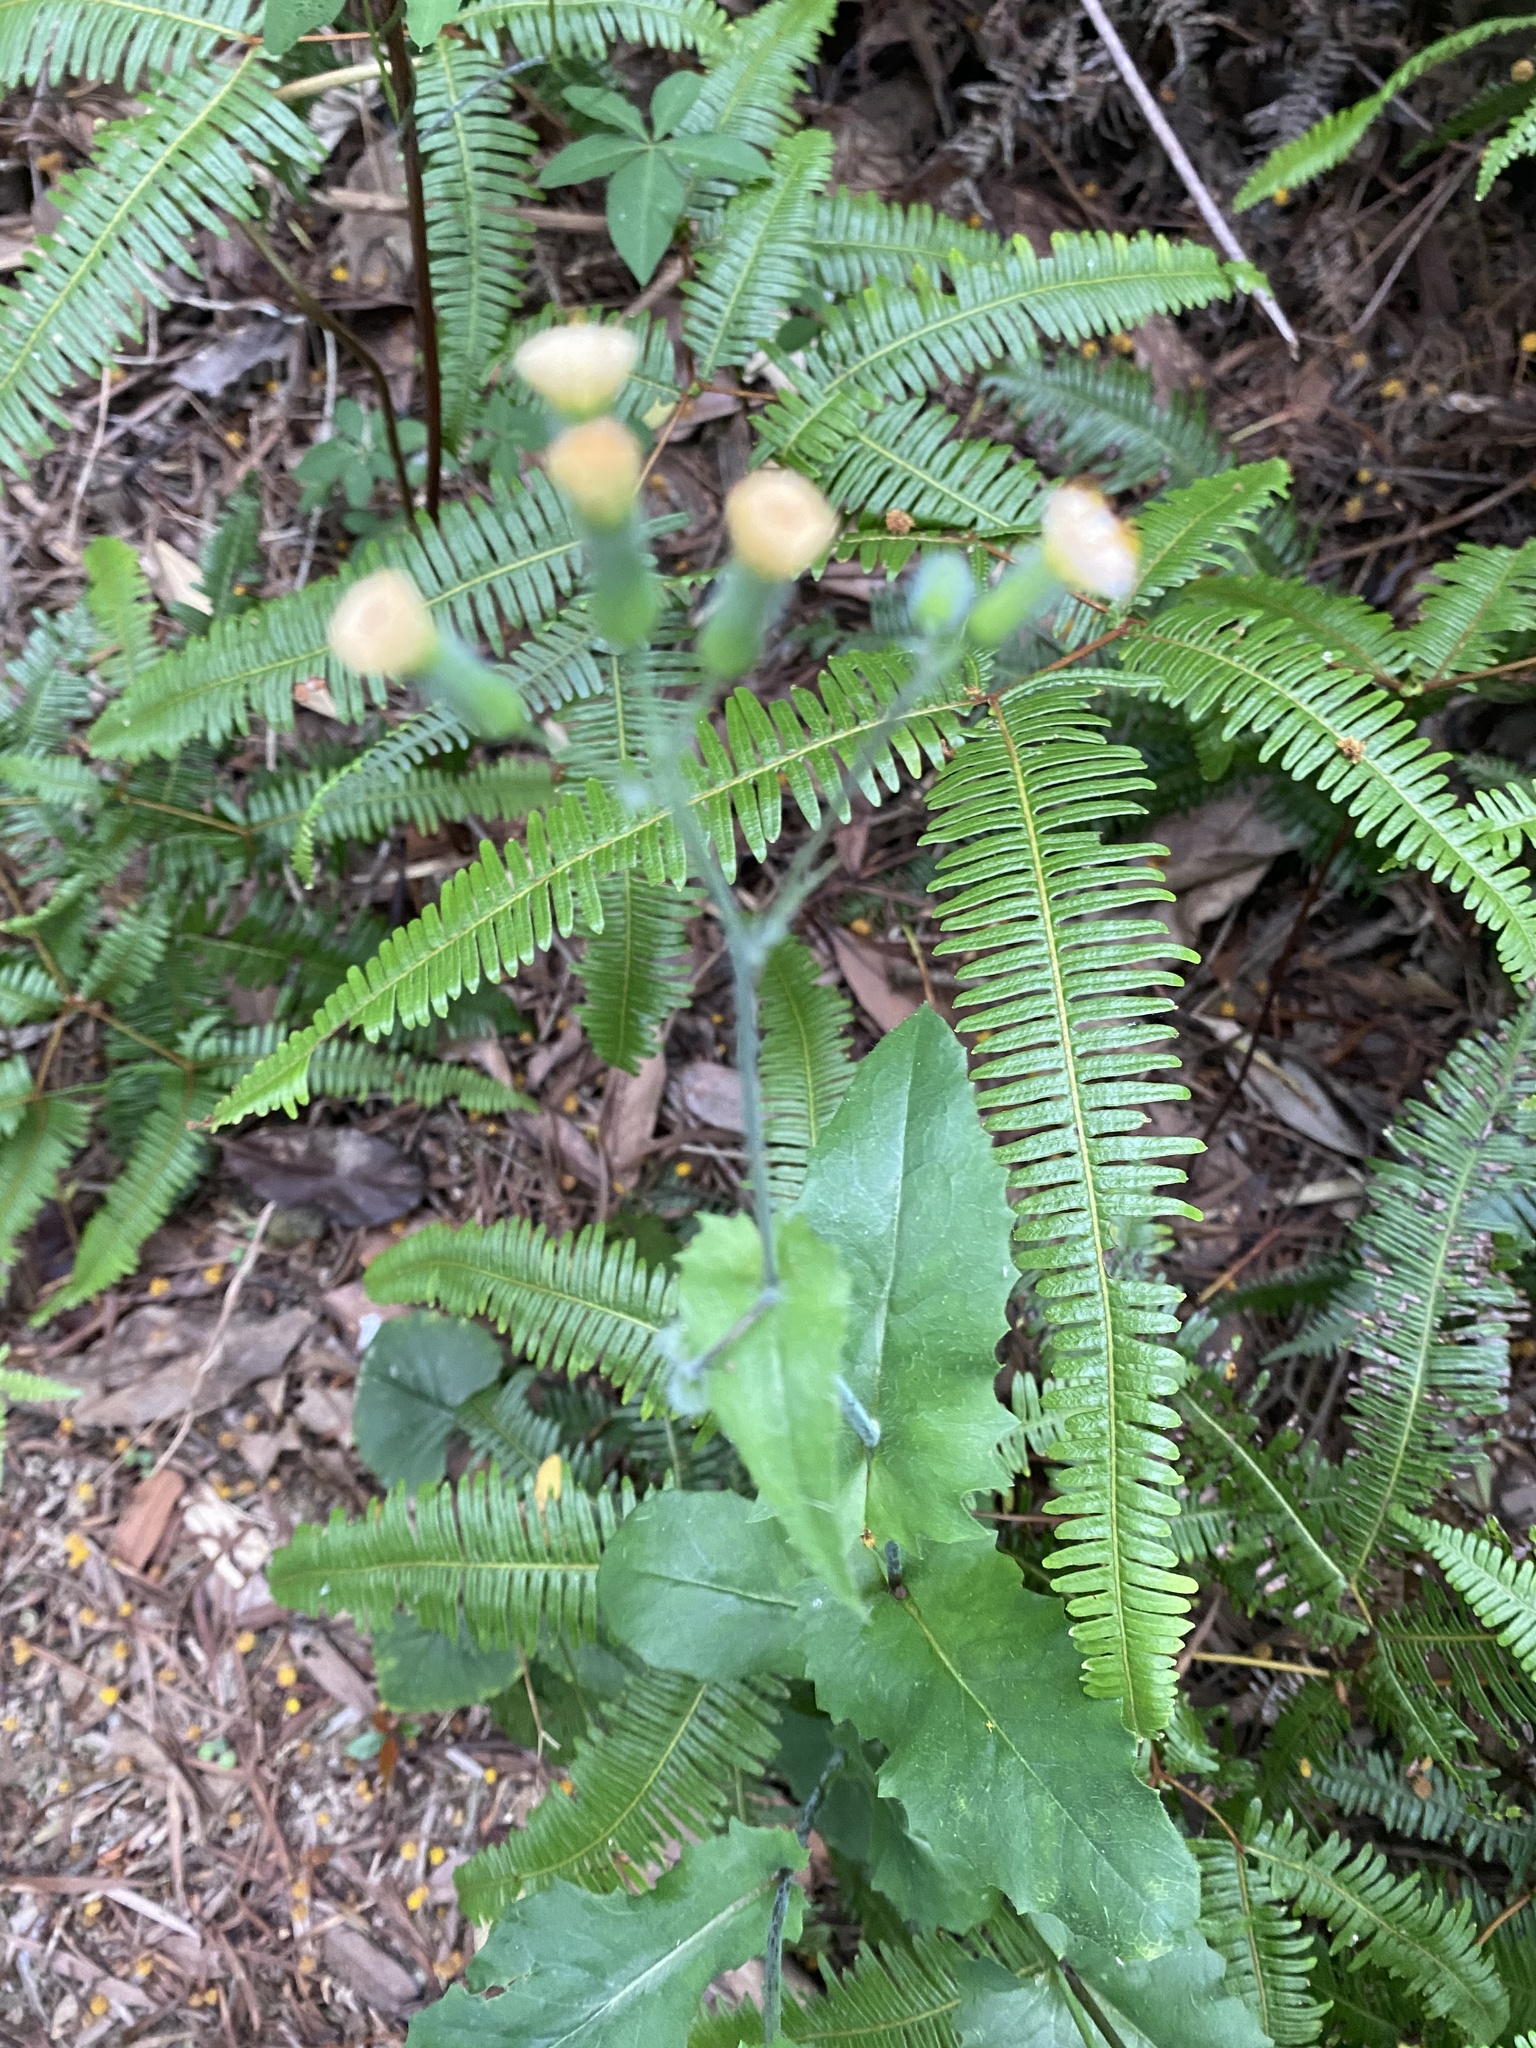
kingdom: Plantae
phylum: Tracheophyta
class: Magnoliopsida
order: Asterales
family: Asteraceae
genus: Emilia
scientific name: Emilia praetermissa
